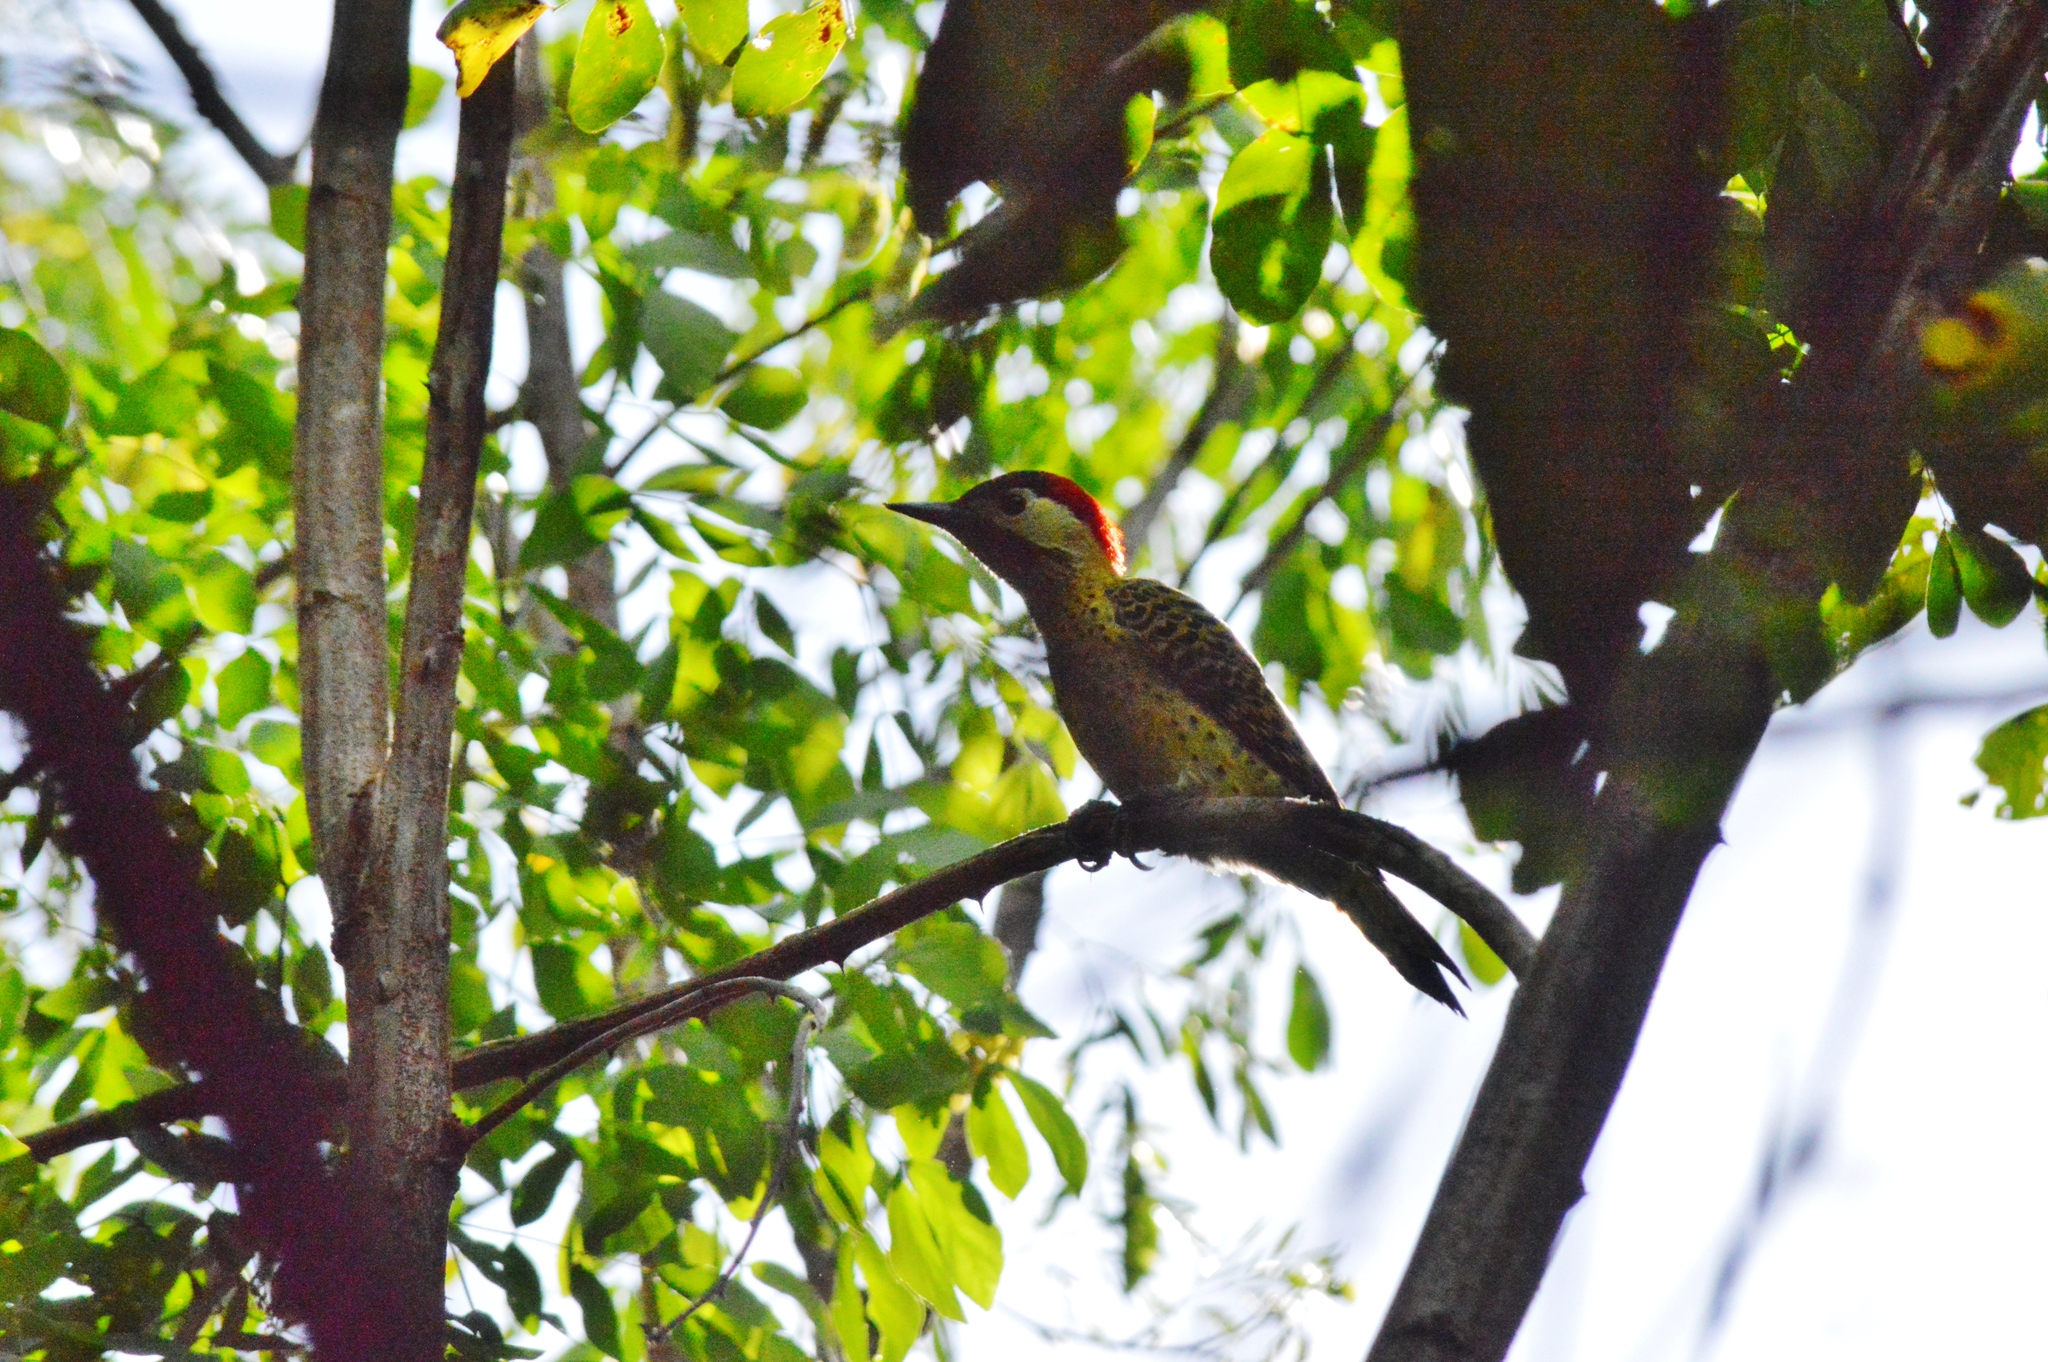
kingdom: Animalia
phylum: Chordata
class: Aves
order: Piciformes
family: Picidae
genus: Colaptes
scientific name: Colaptes melanochloros
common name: Green-barred woodpecker
